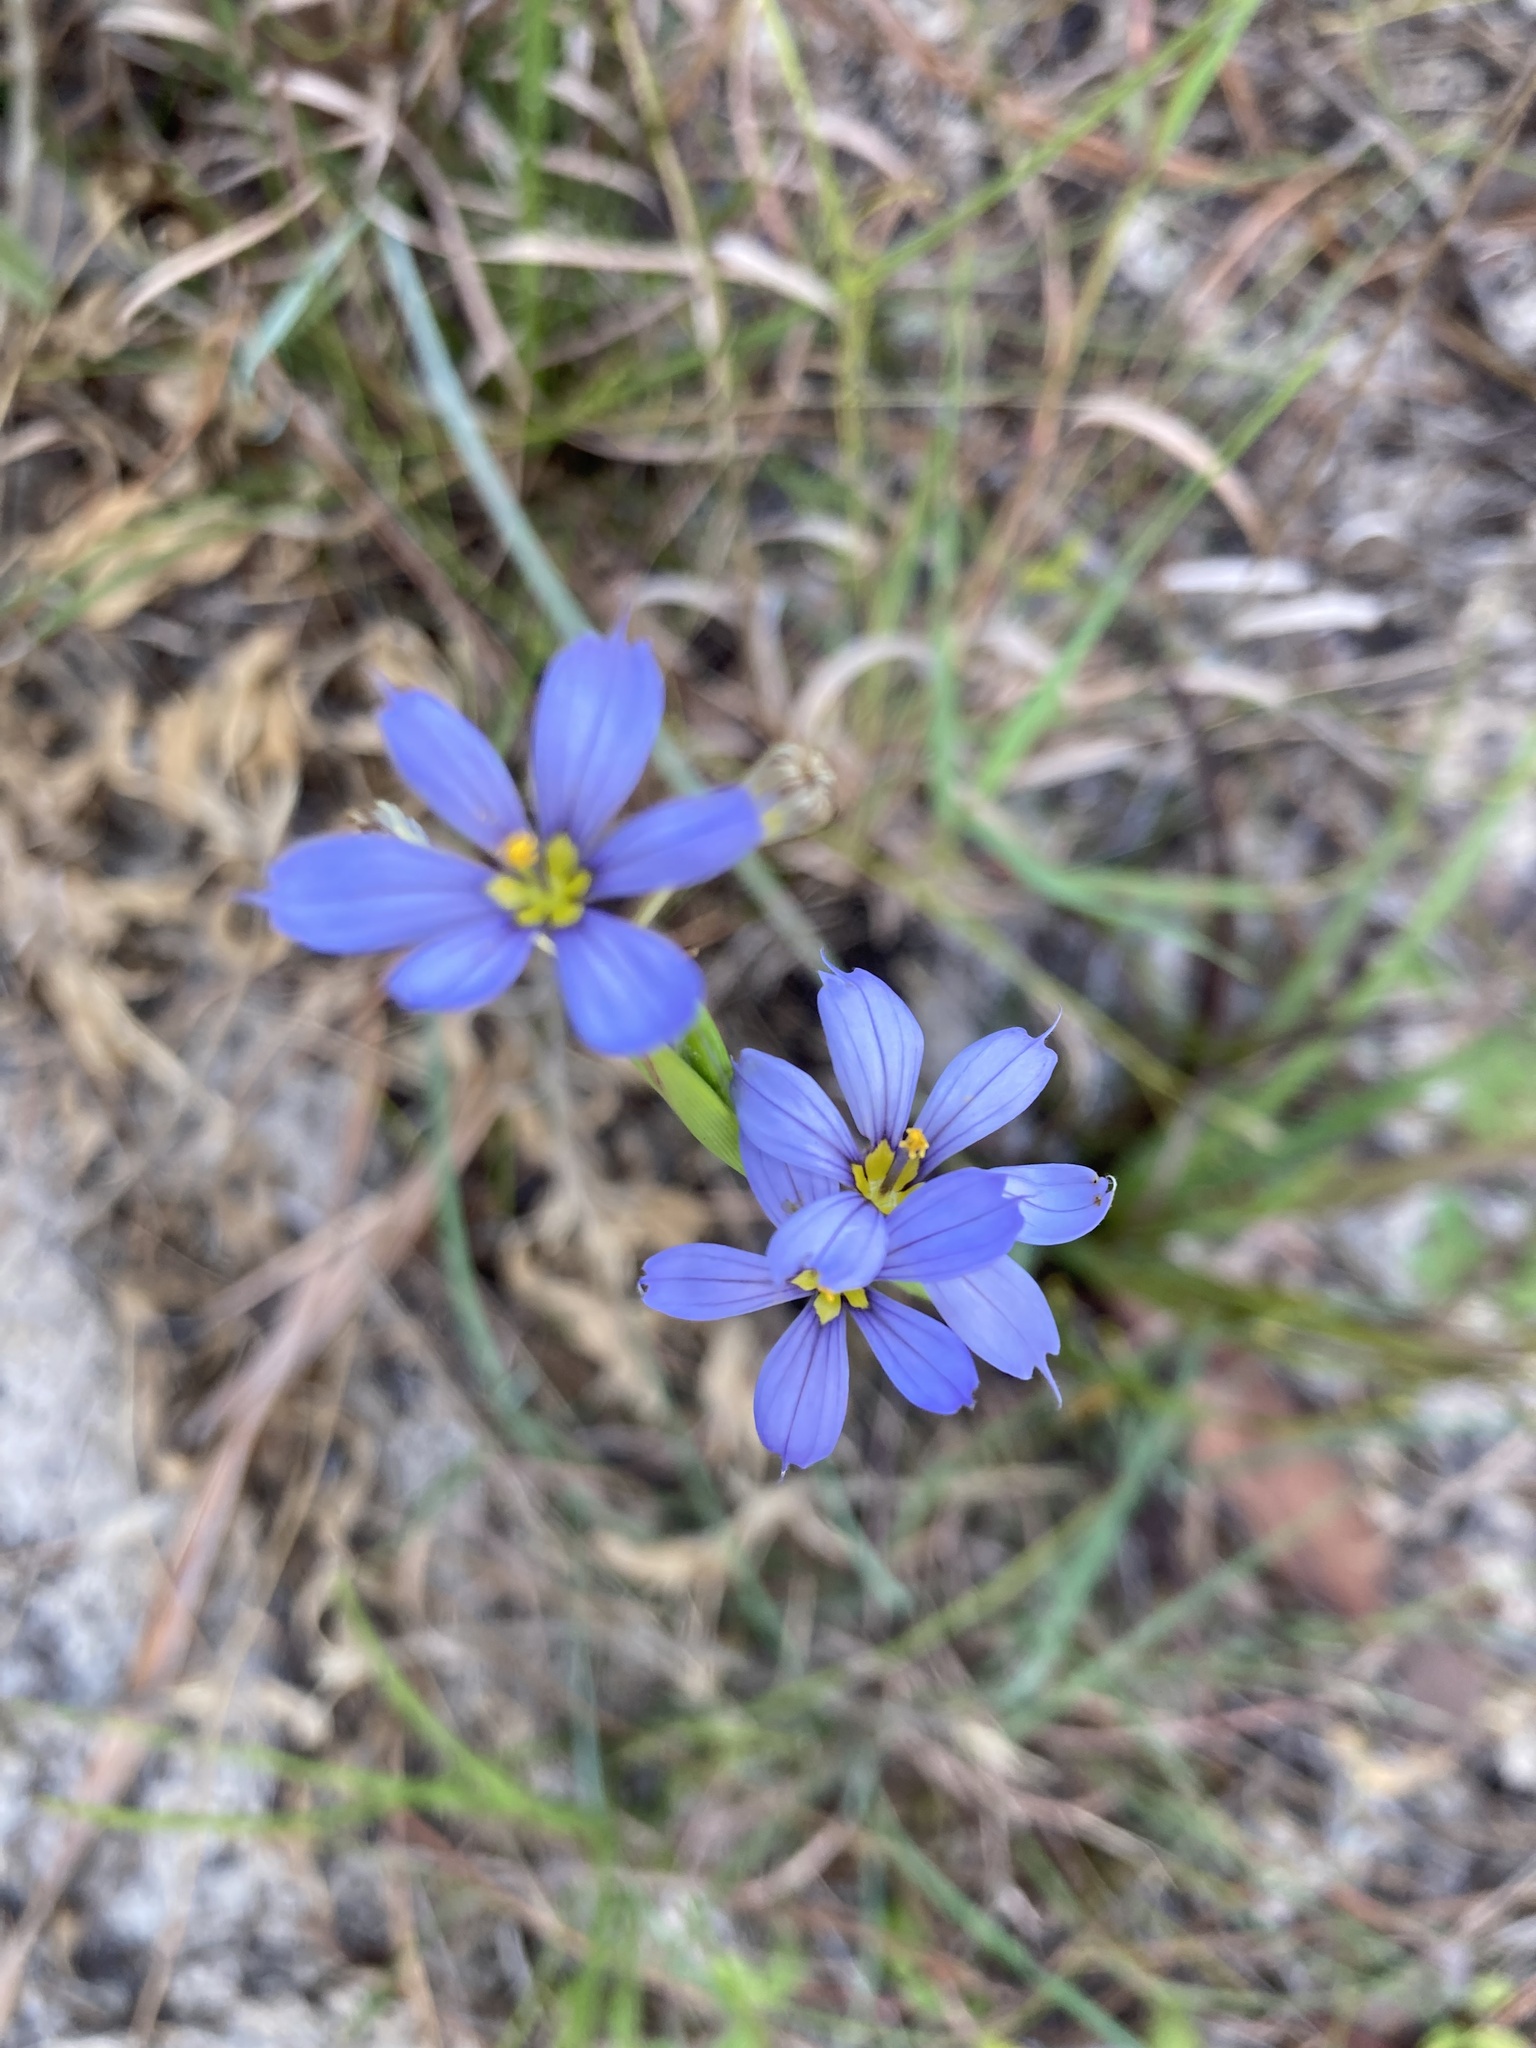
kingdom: Plantae
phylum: Tracheophyta
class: Liliopsida
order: Asparagales
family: Iridaceae
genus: Sisyrinchium
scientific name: Sisyrinchium xerophyllum
